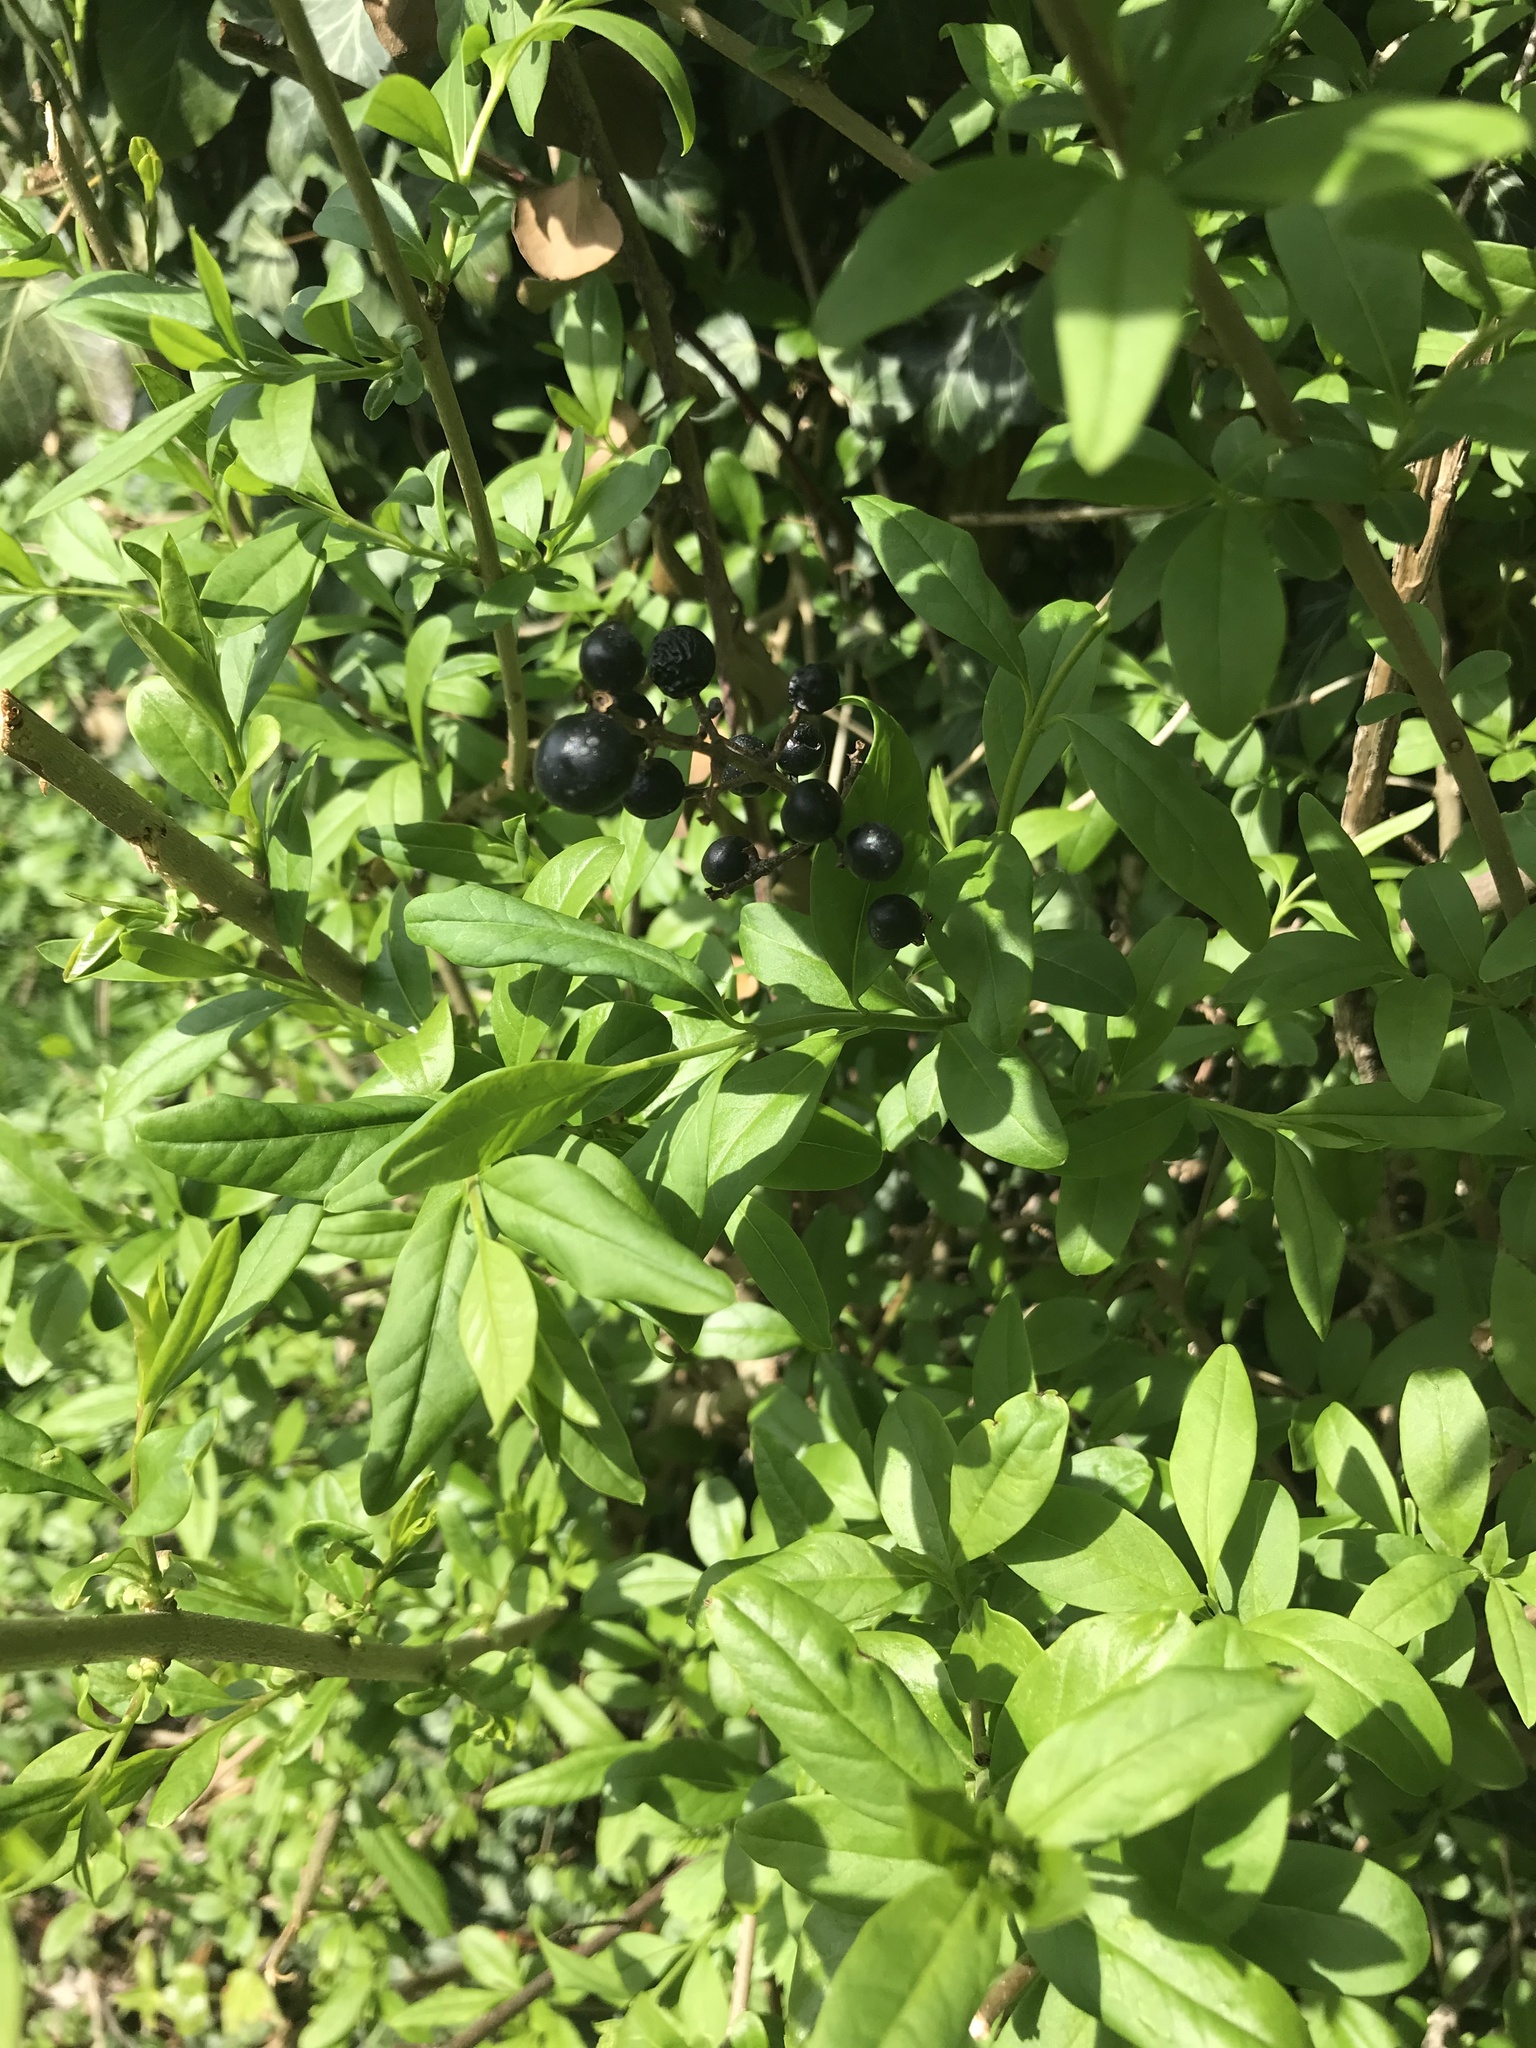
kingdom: Plantae
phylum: Tracheophyta
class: Magnoliopsida
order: Lamiales
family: Oleaceae
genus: Ligustrum
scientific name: Ligustrum vulgare
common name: Wild privet
